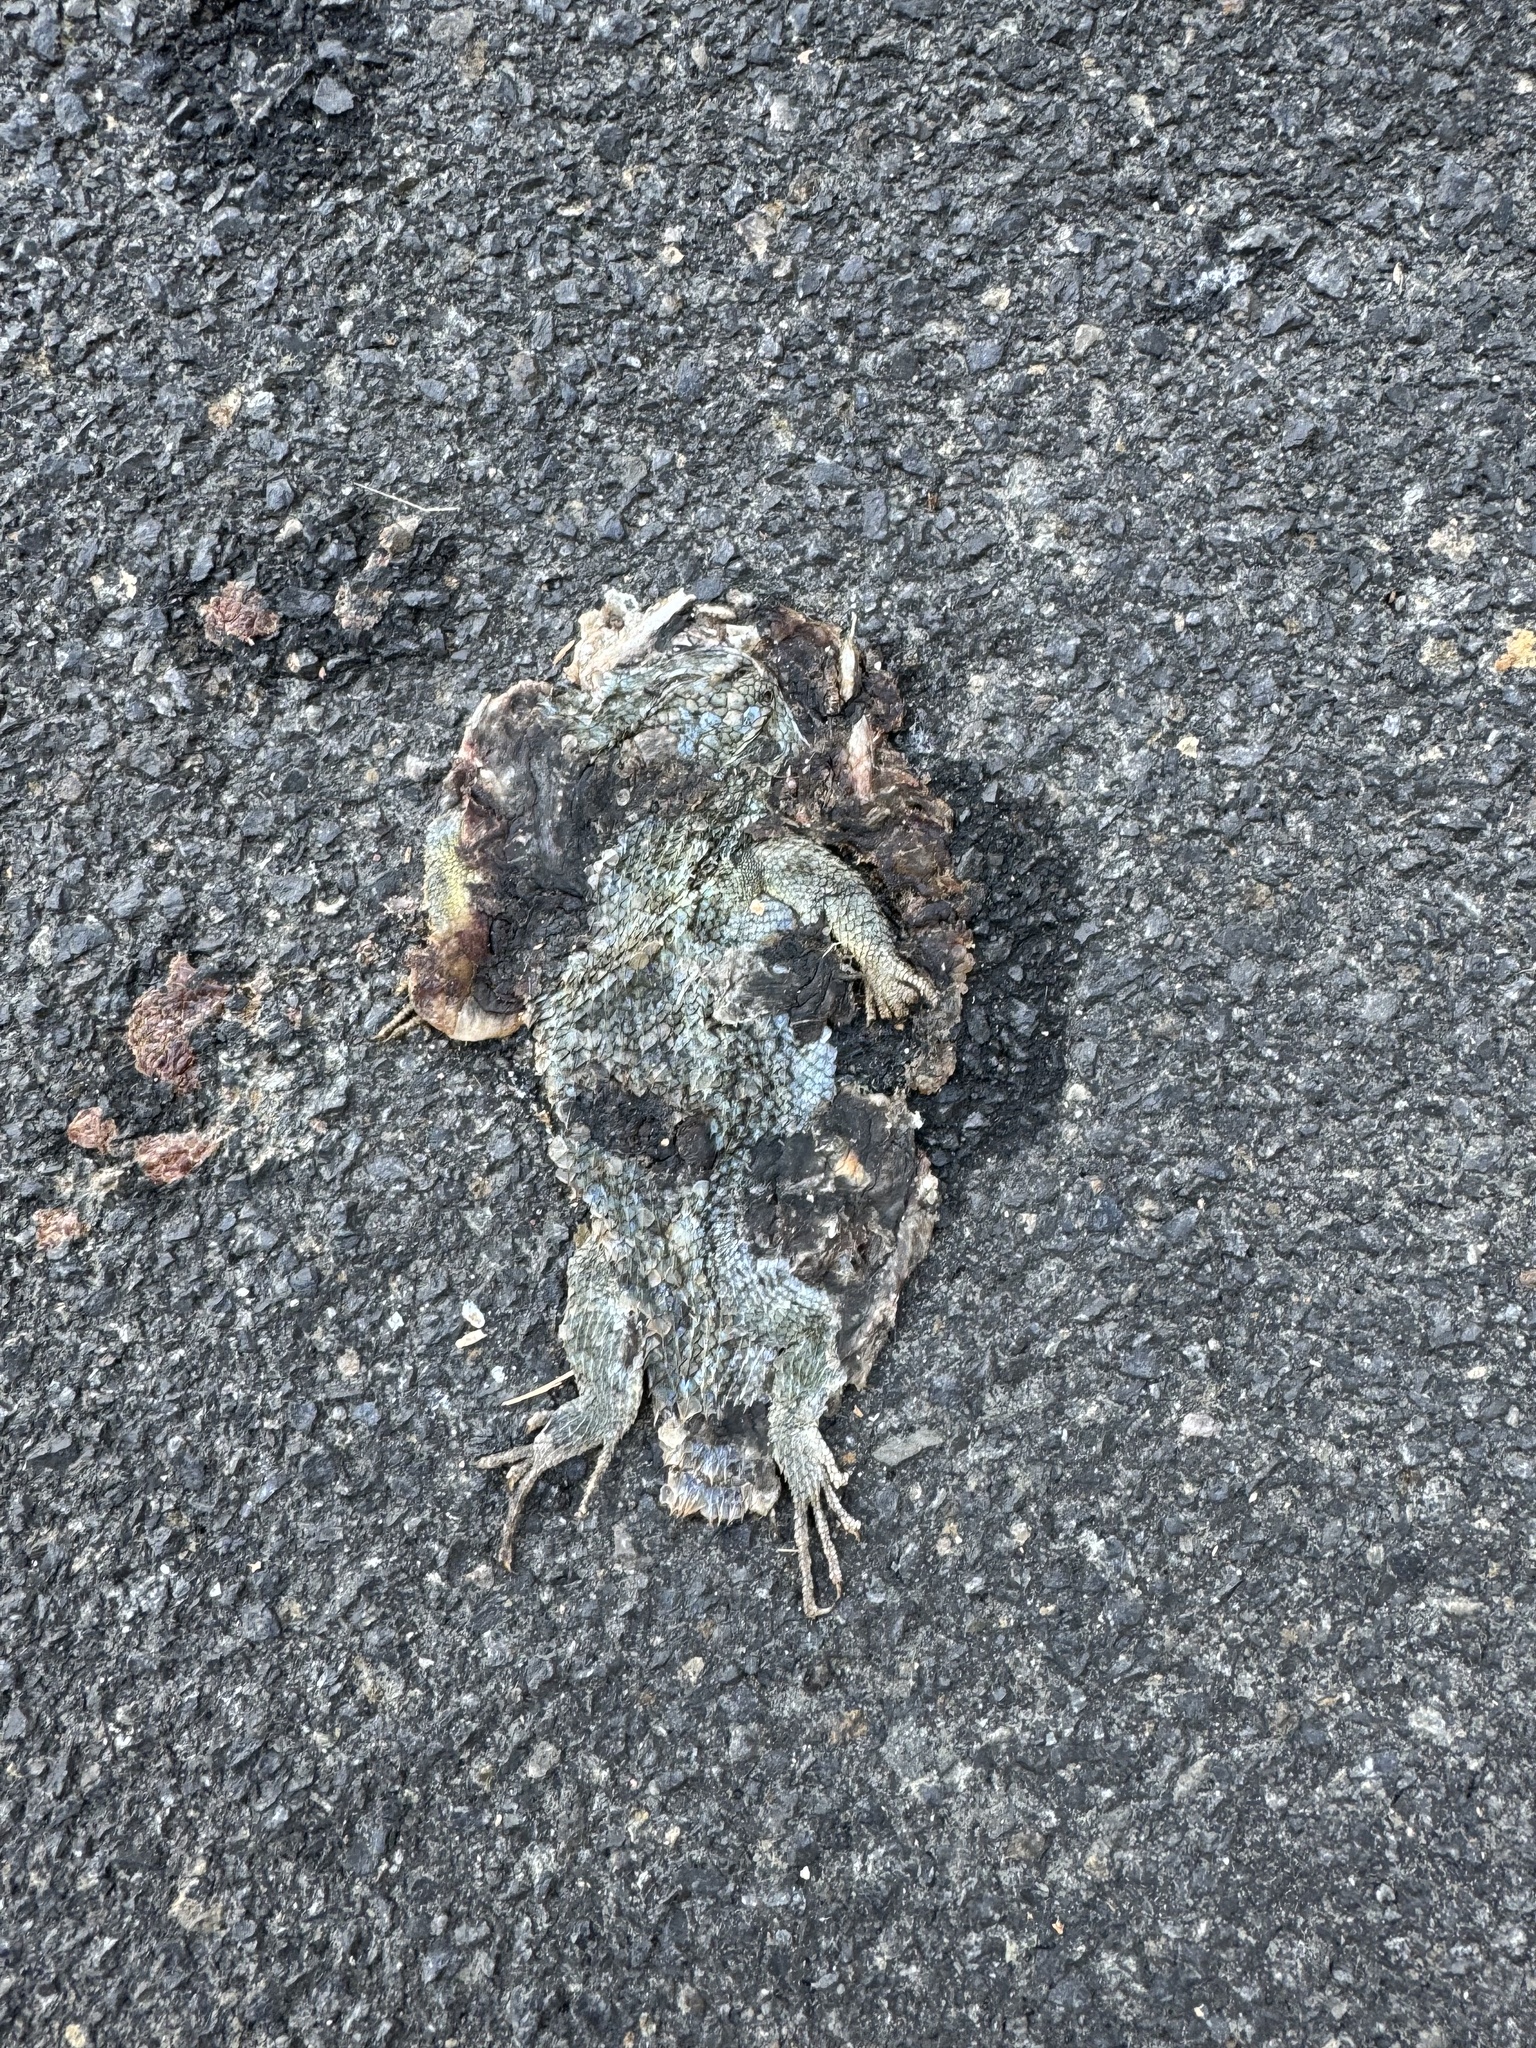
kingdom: Animalia
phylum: Chordata
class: Squamata
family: Phrynosomatidae
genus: Sceloporus
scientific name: Sceloporus occidentalis
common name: Western fence lizard
